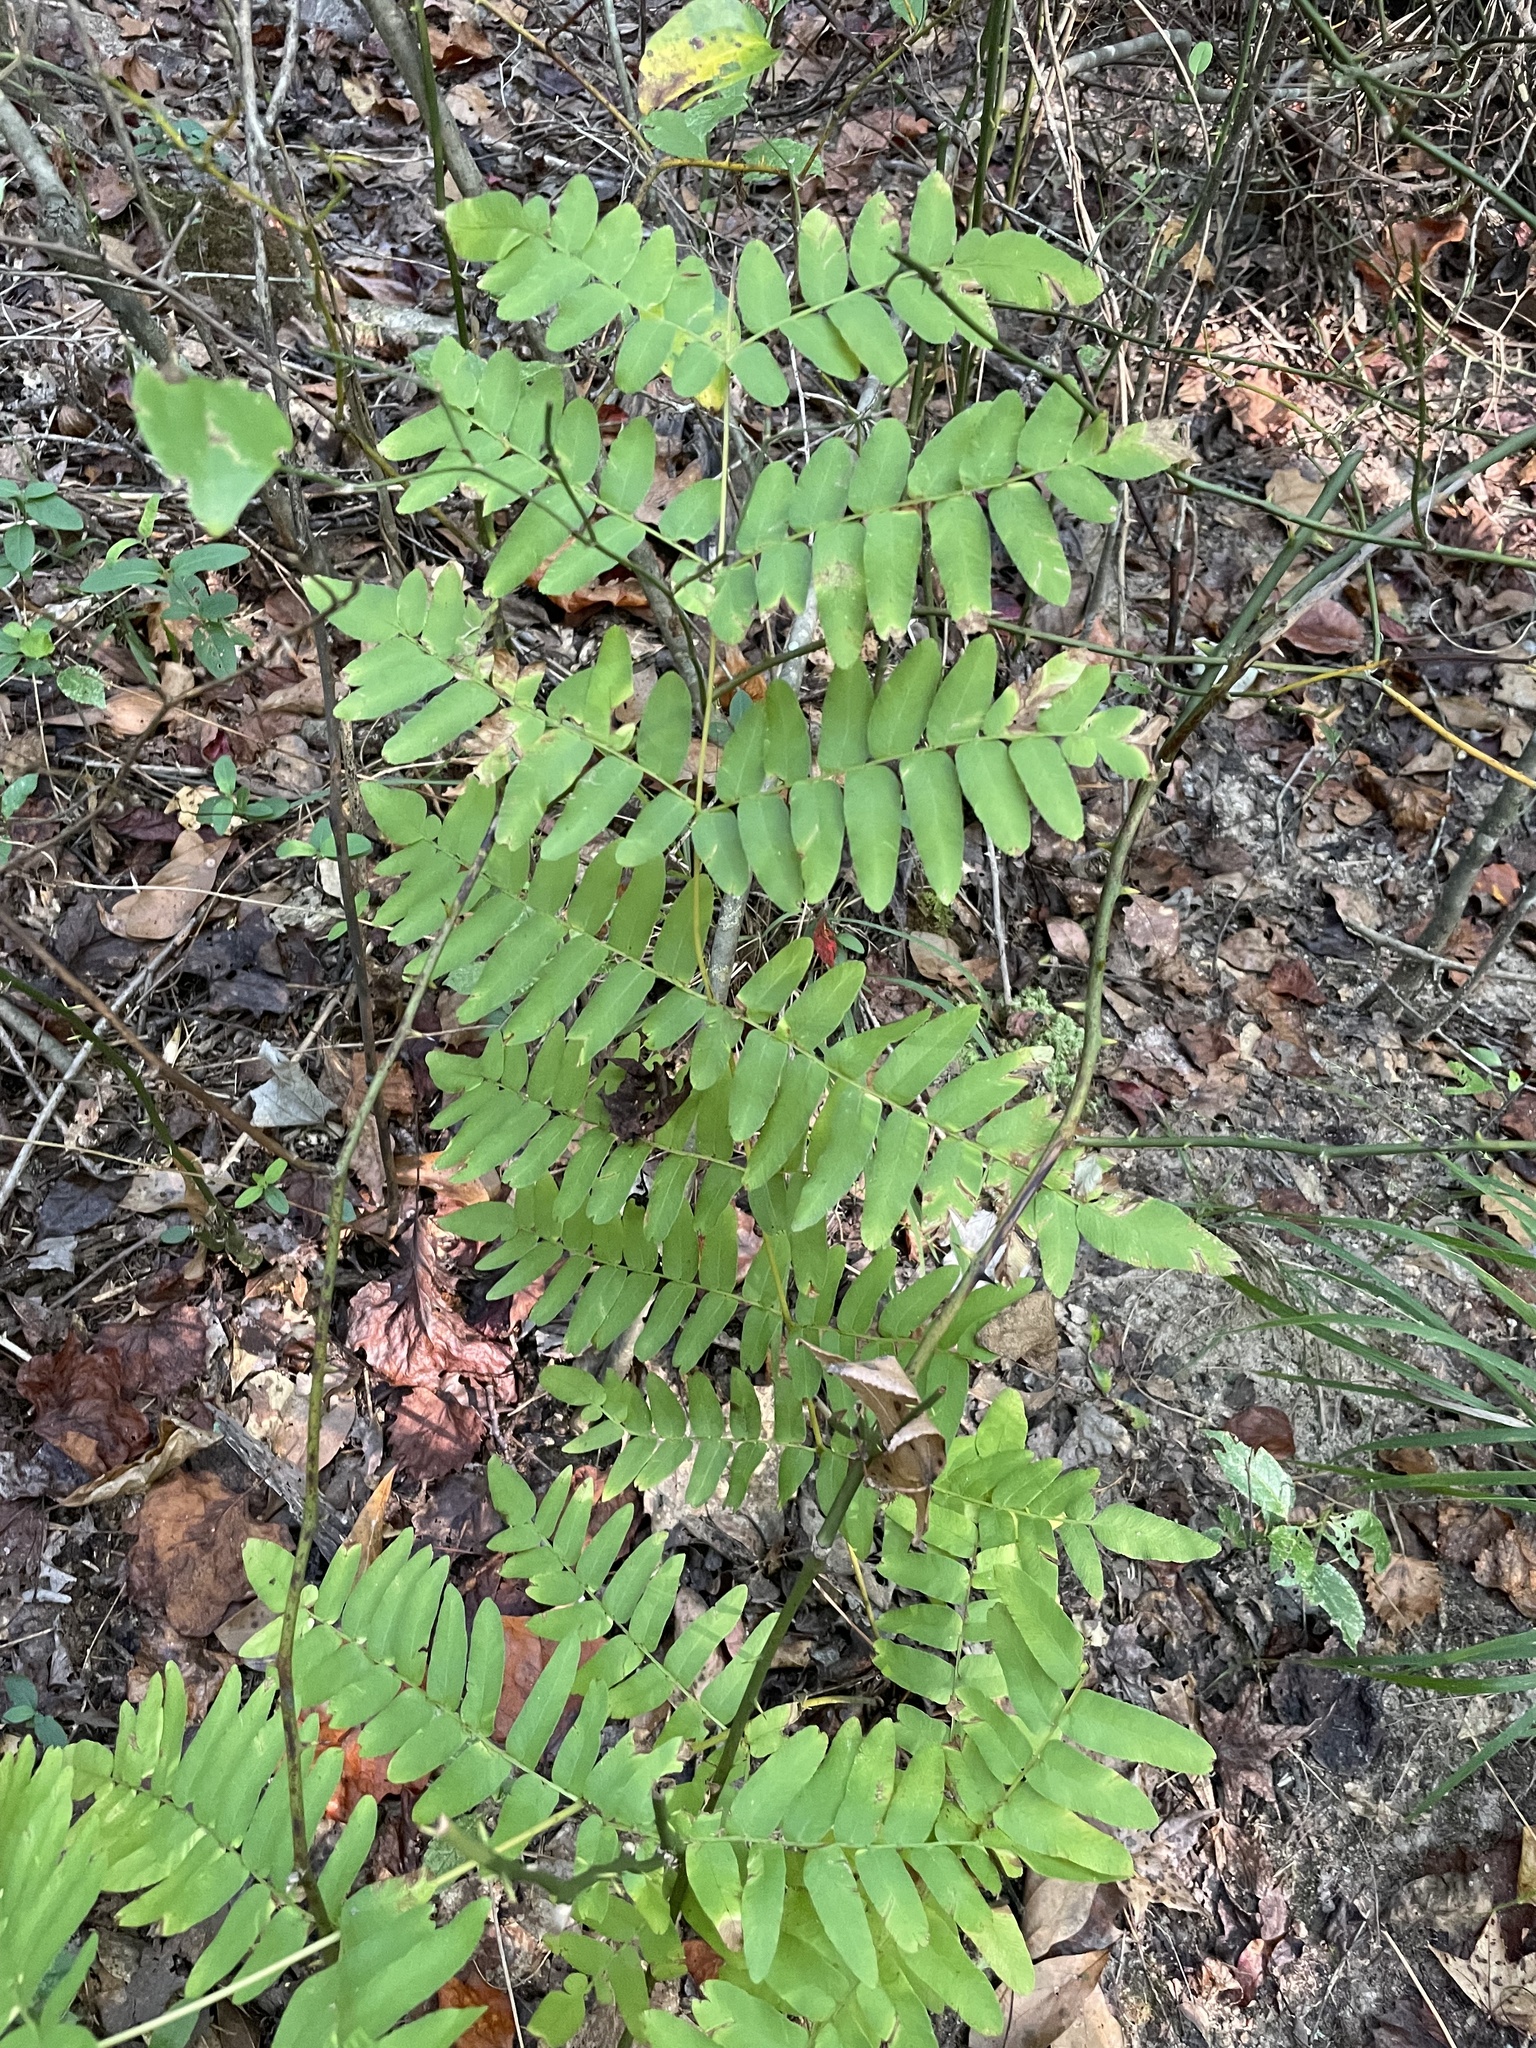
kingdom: Plantae
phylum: Tracheophyta
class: Polypodiopsida
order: Osmundales
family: Osmundaceae
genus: Osmunda
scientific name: Osmunda spectabilis
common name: American royal fern
